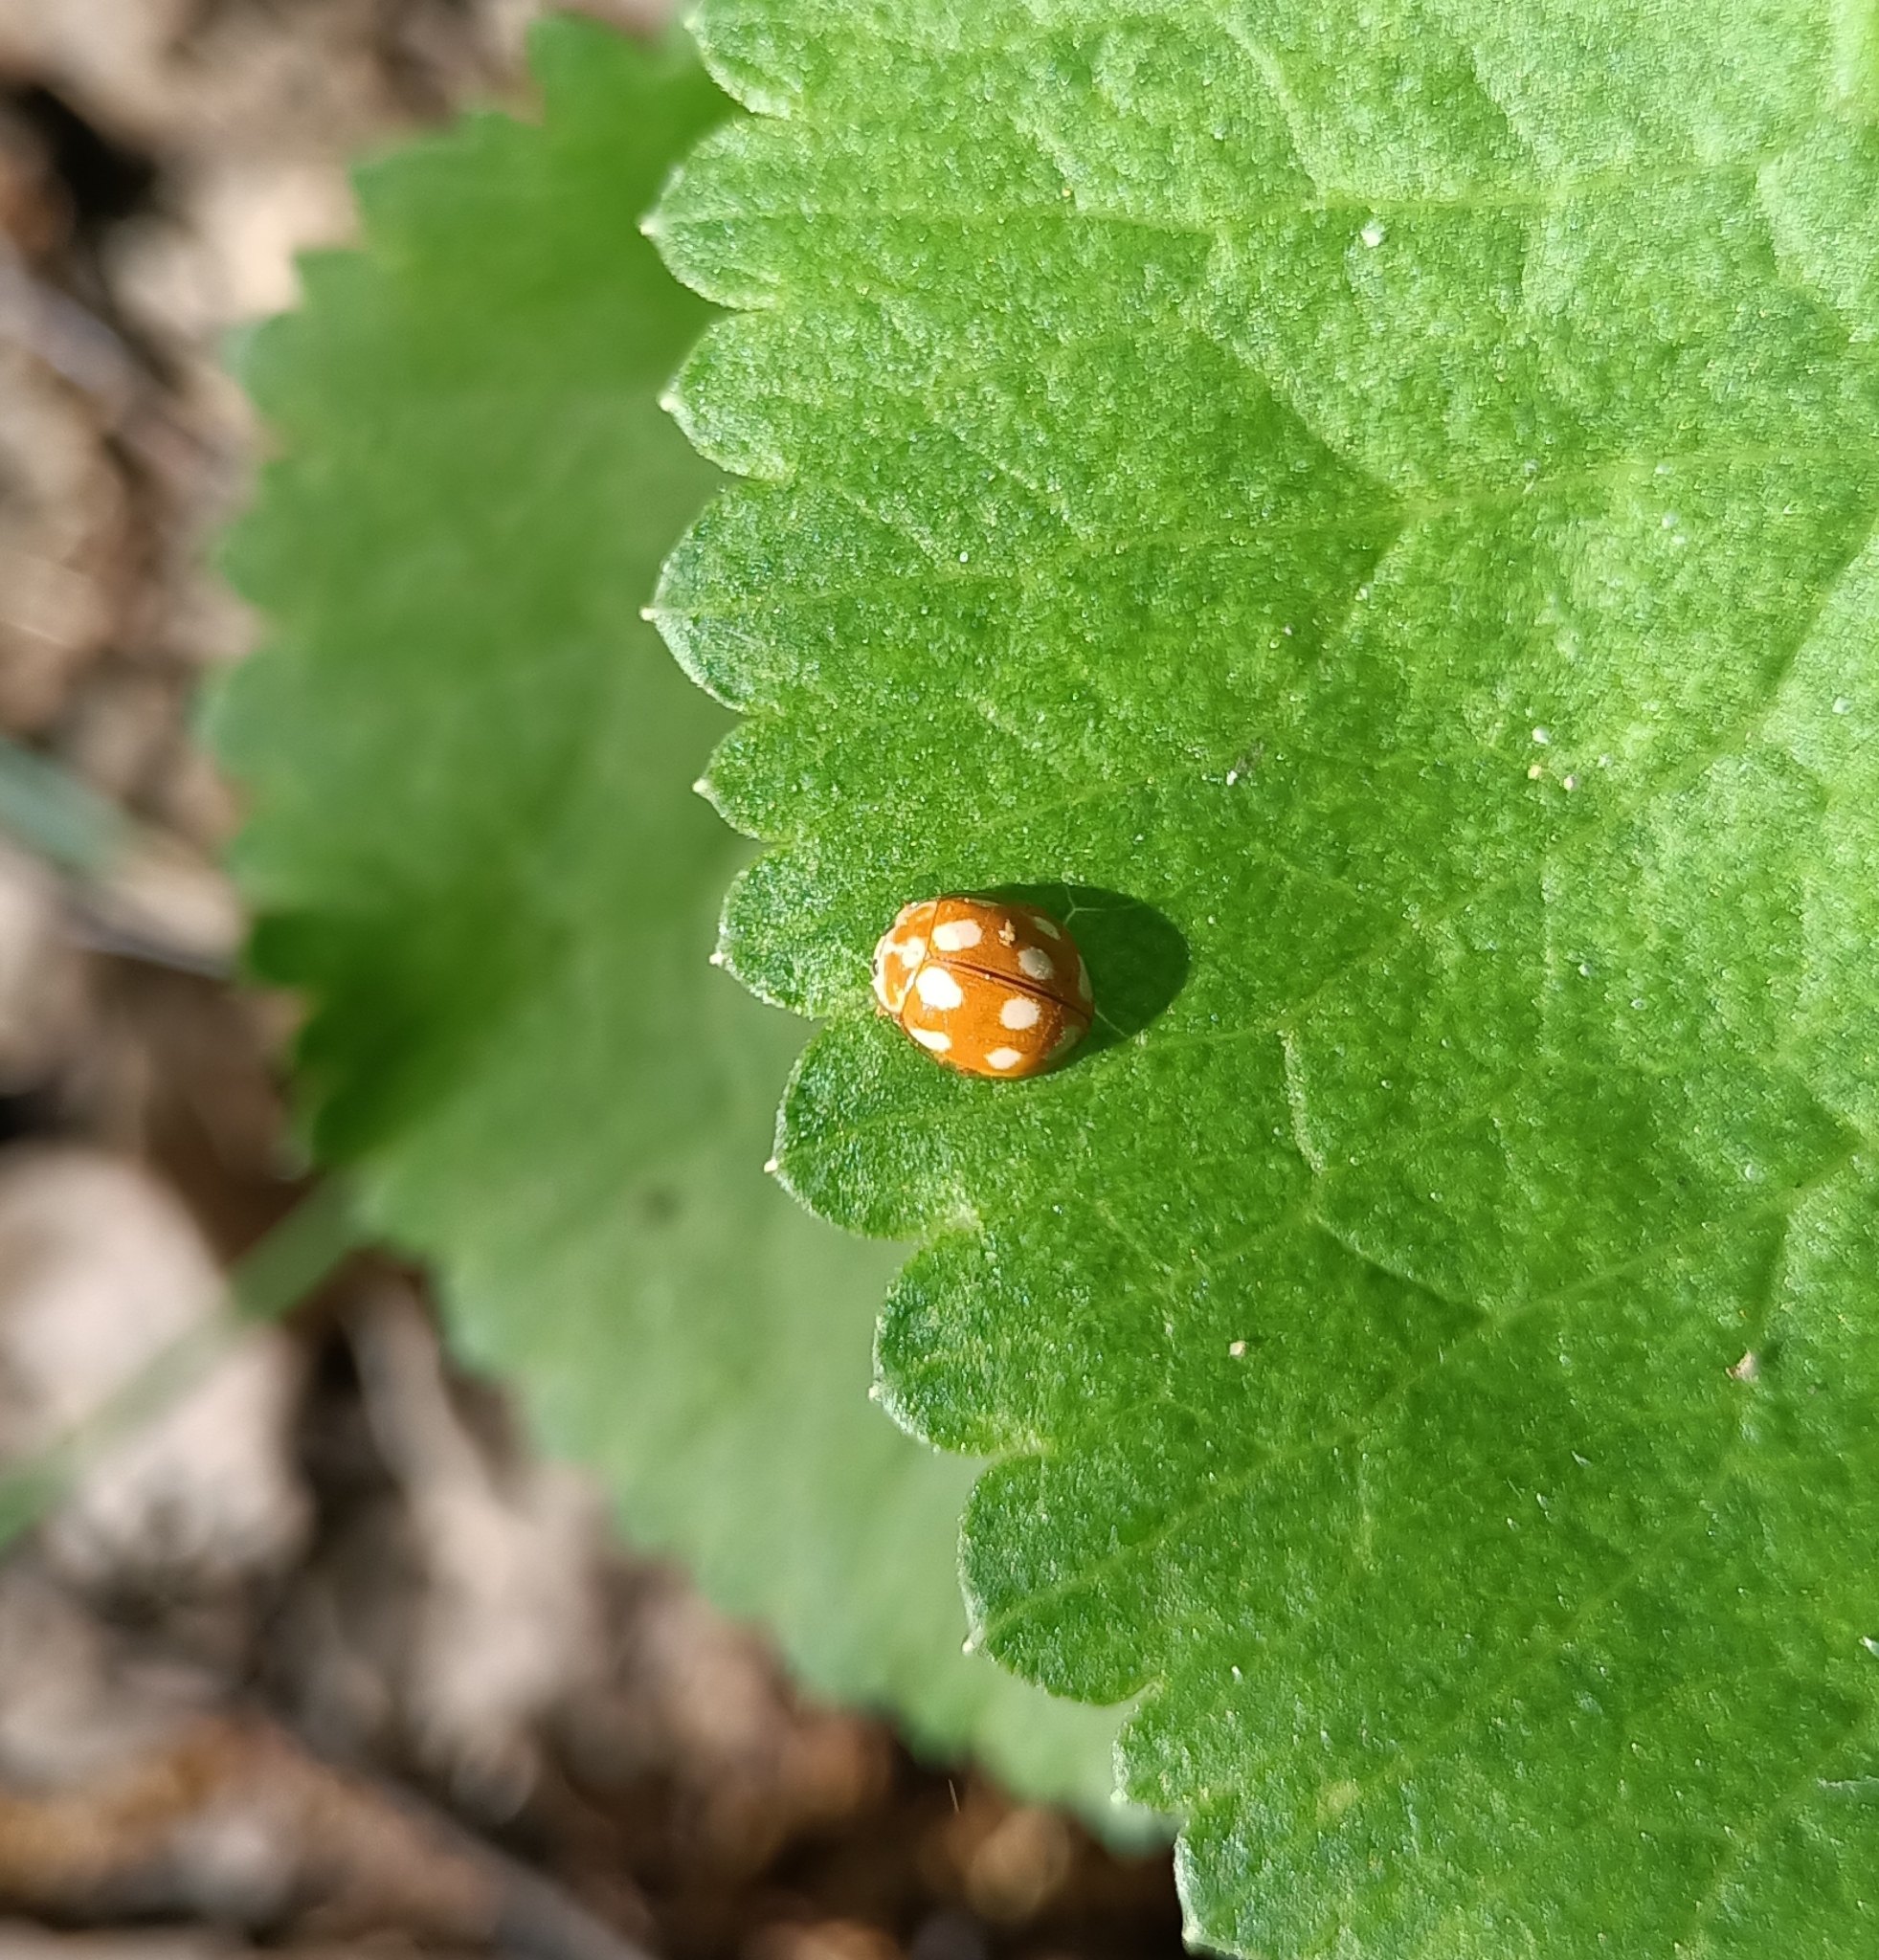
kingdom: Animalia
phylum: Arthropoda
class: Insecta
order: Coleoptera
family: Coccinellidae
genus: Calvia
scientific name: Calvia decemguttata
